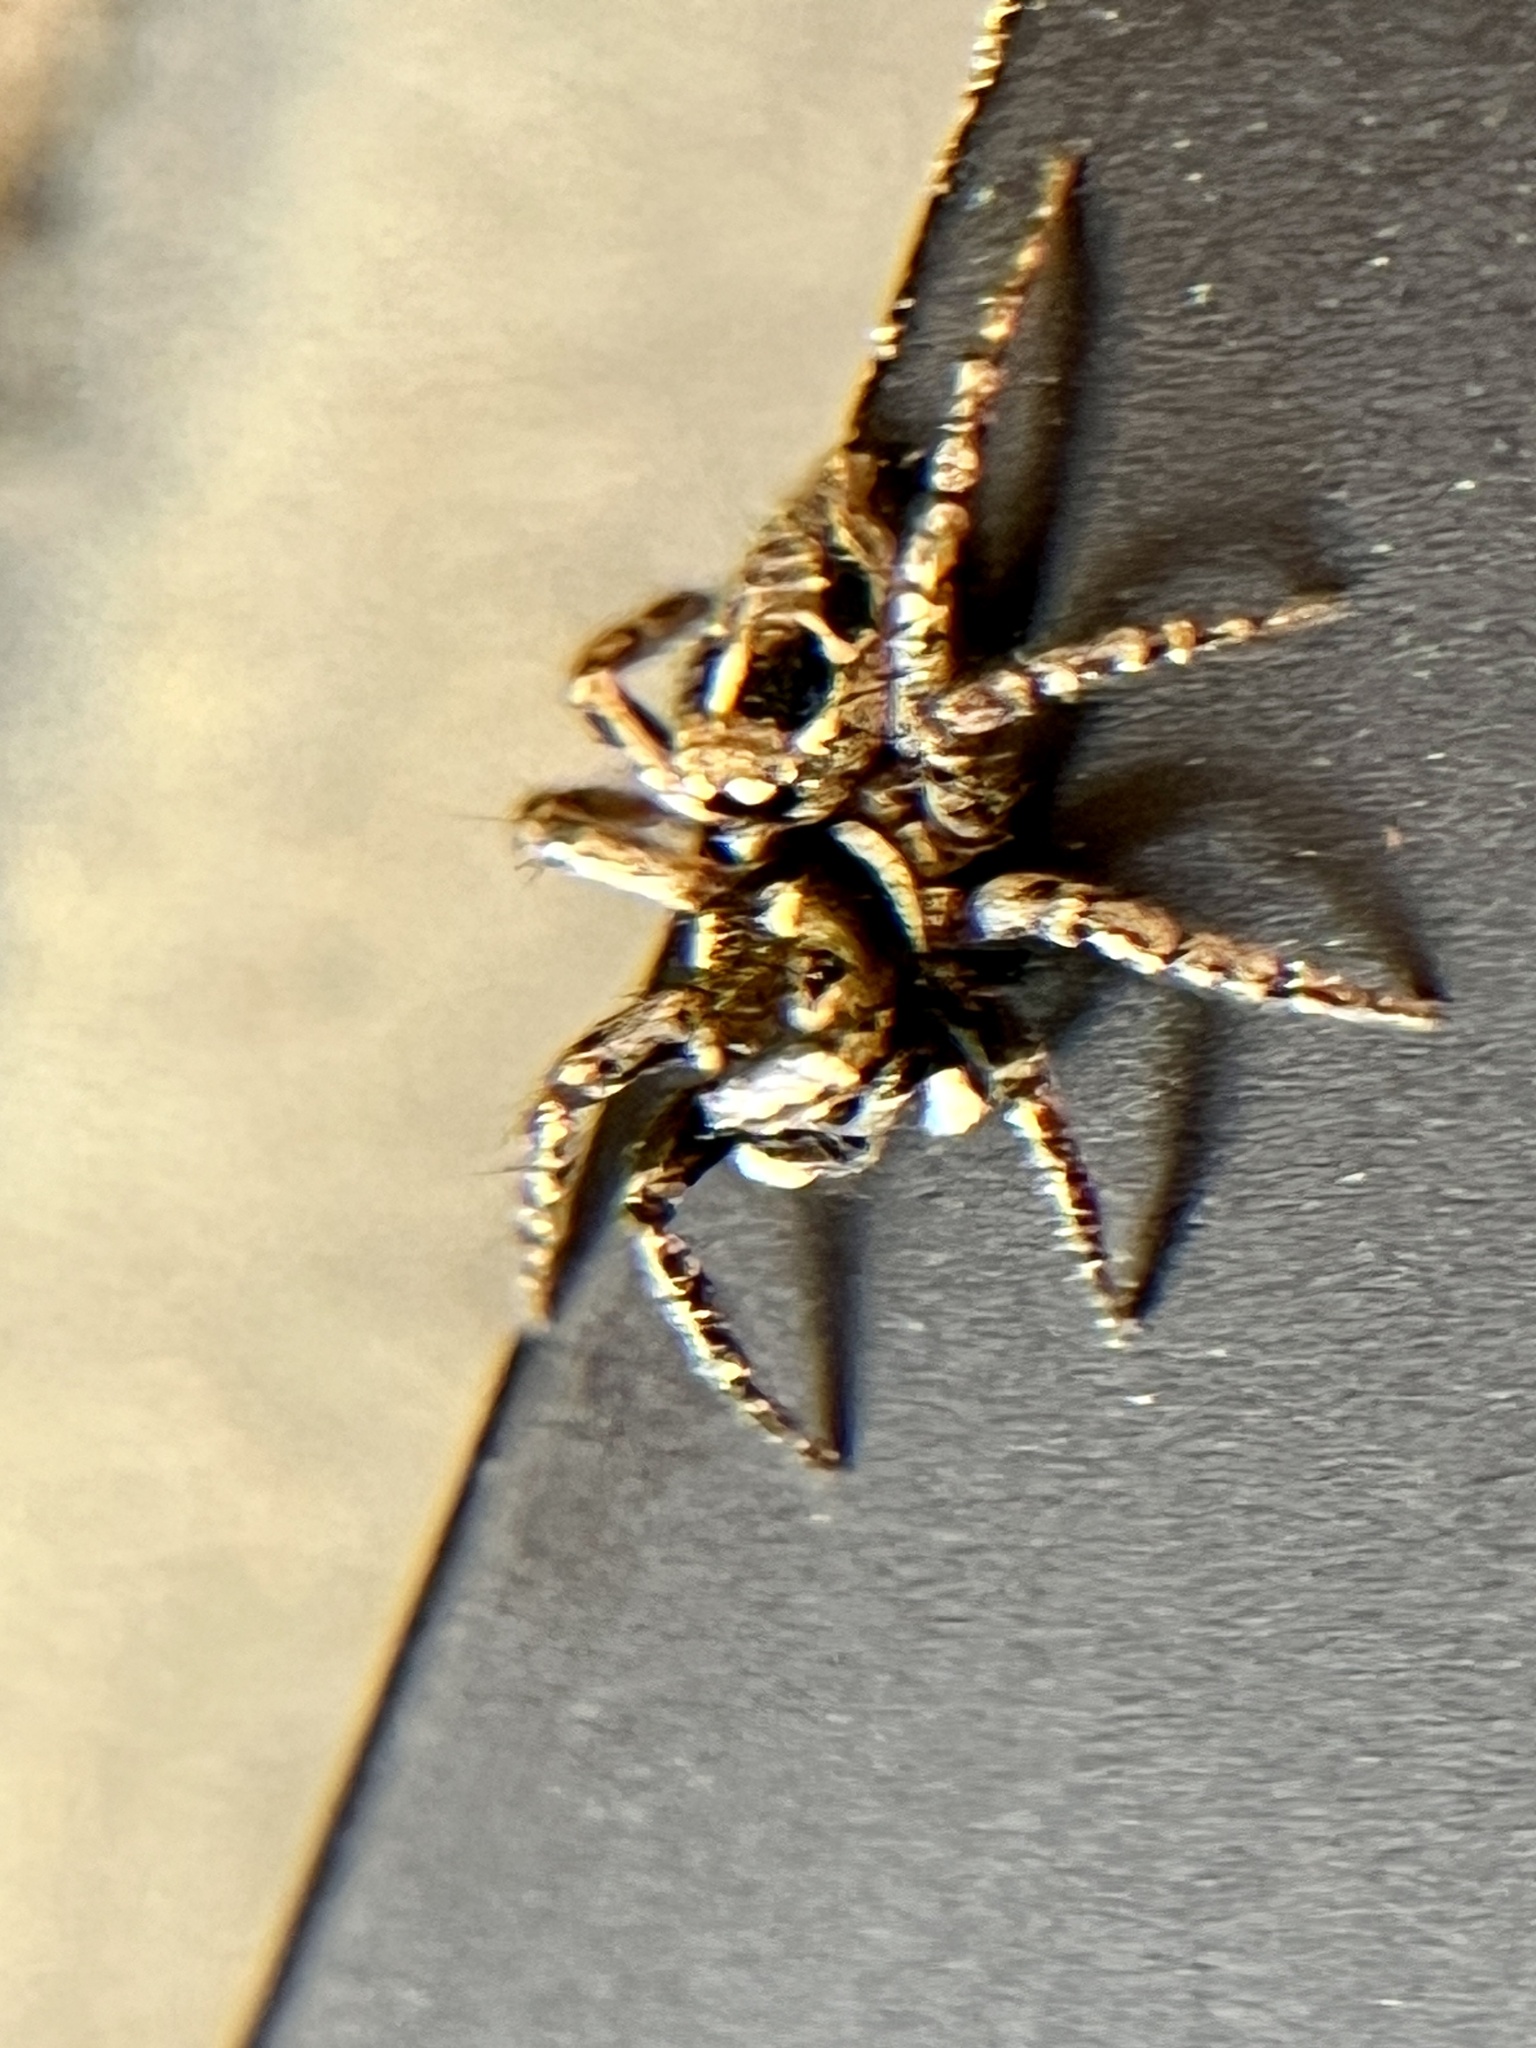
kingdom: Animalia
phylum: Arthropoda
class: Arachnida
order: Araneae
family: Salticidae
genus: Anasaitis
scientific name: Anasaitis canosa
